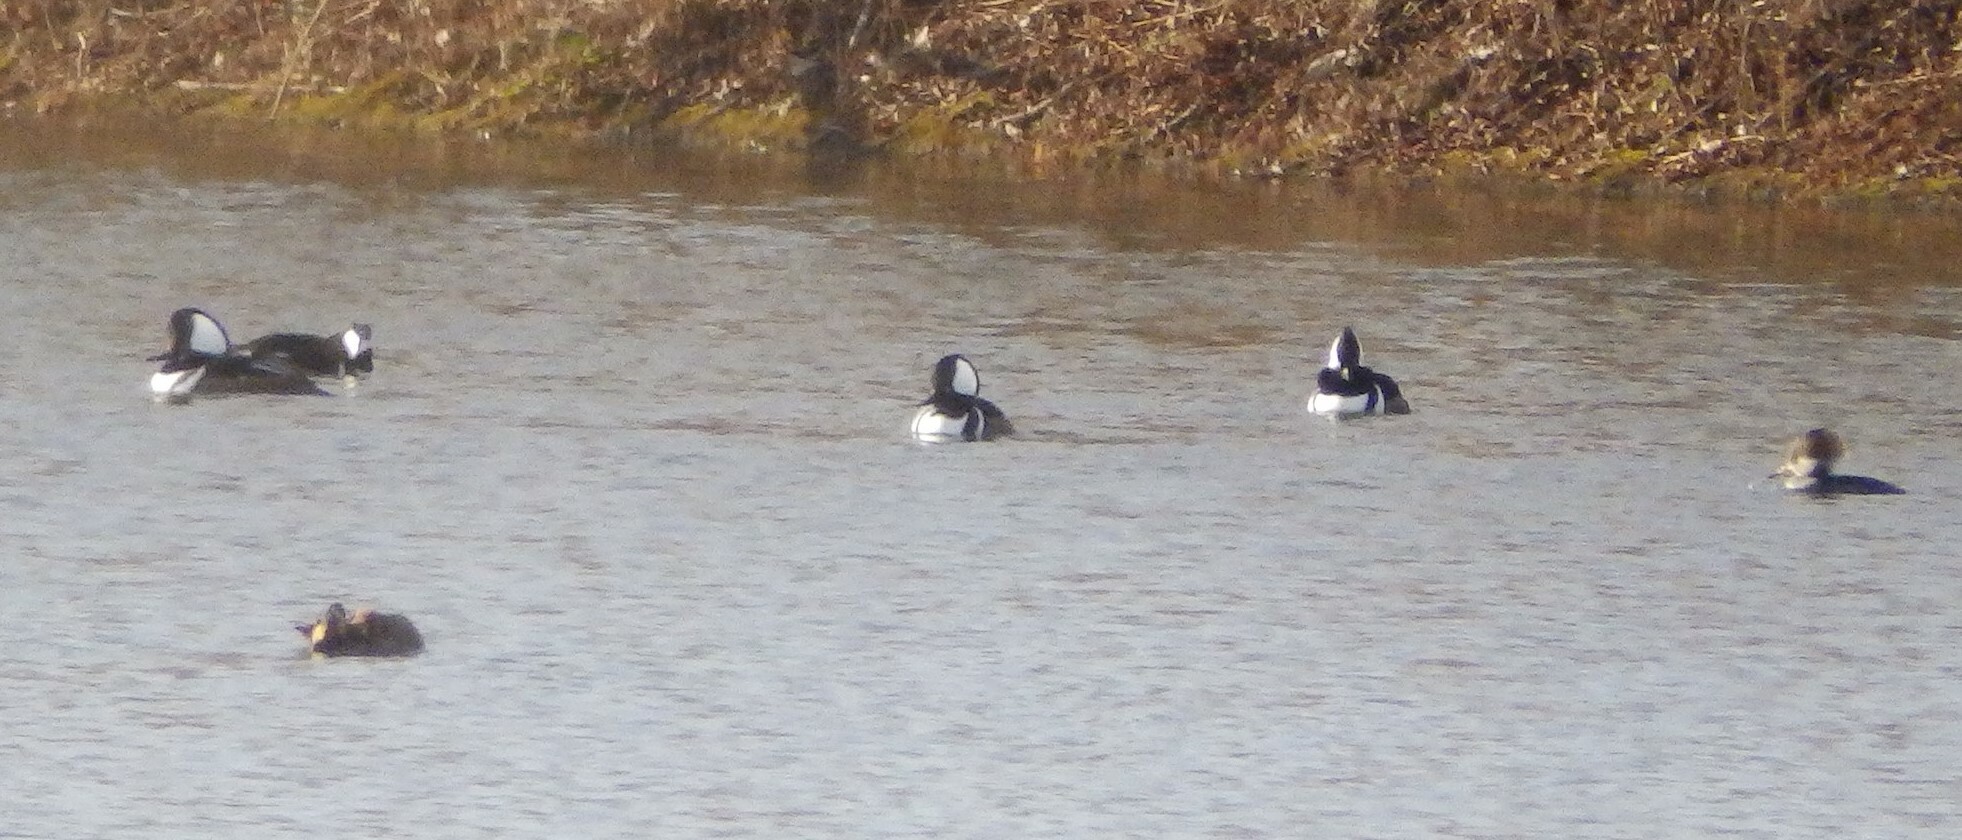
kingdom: Animalia
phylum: Chordata
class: Aves
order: Anseriformes
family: Anatidae
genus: Lophodytes
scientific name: Lophodytes cucullatus
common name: Hooded merganser
